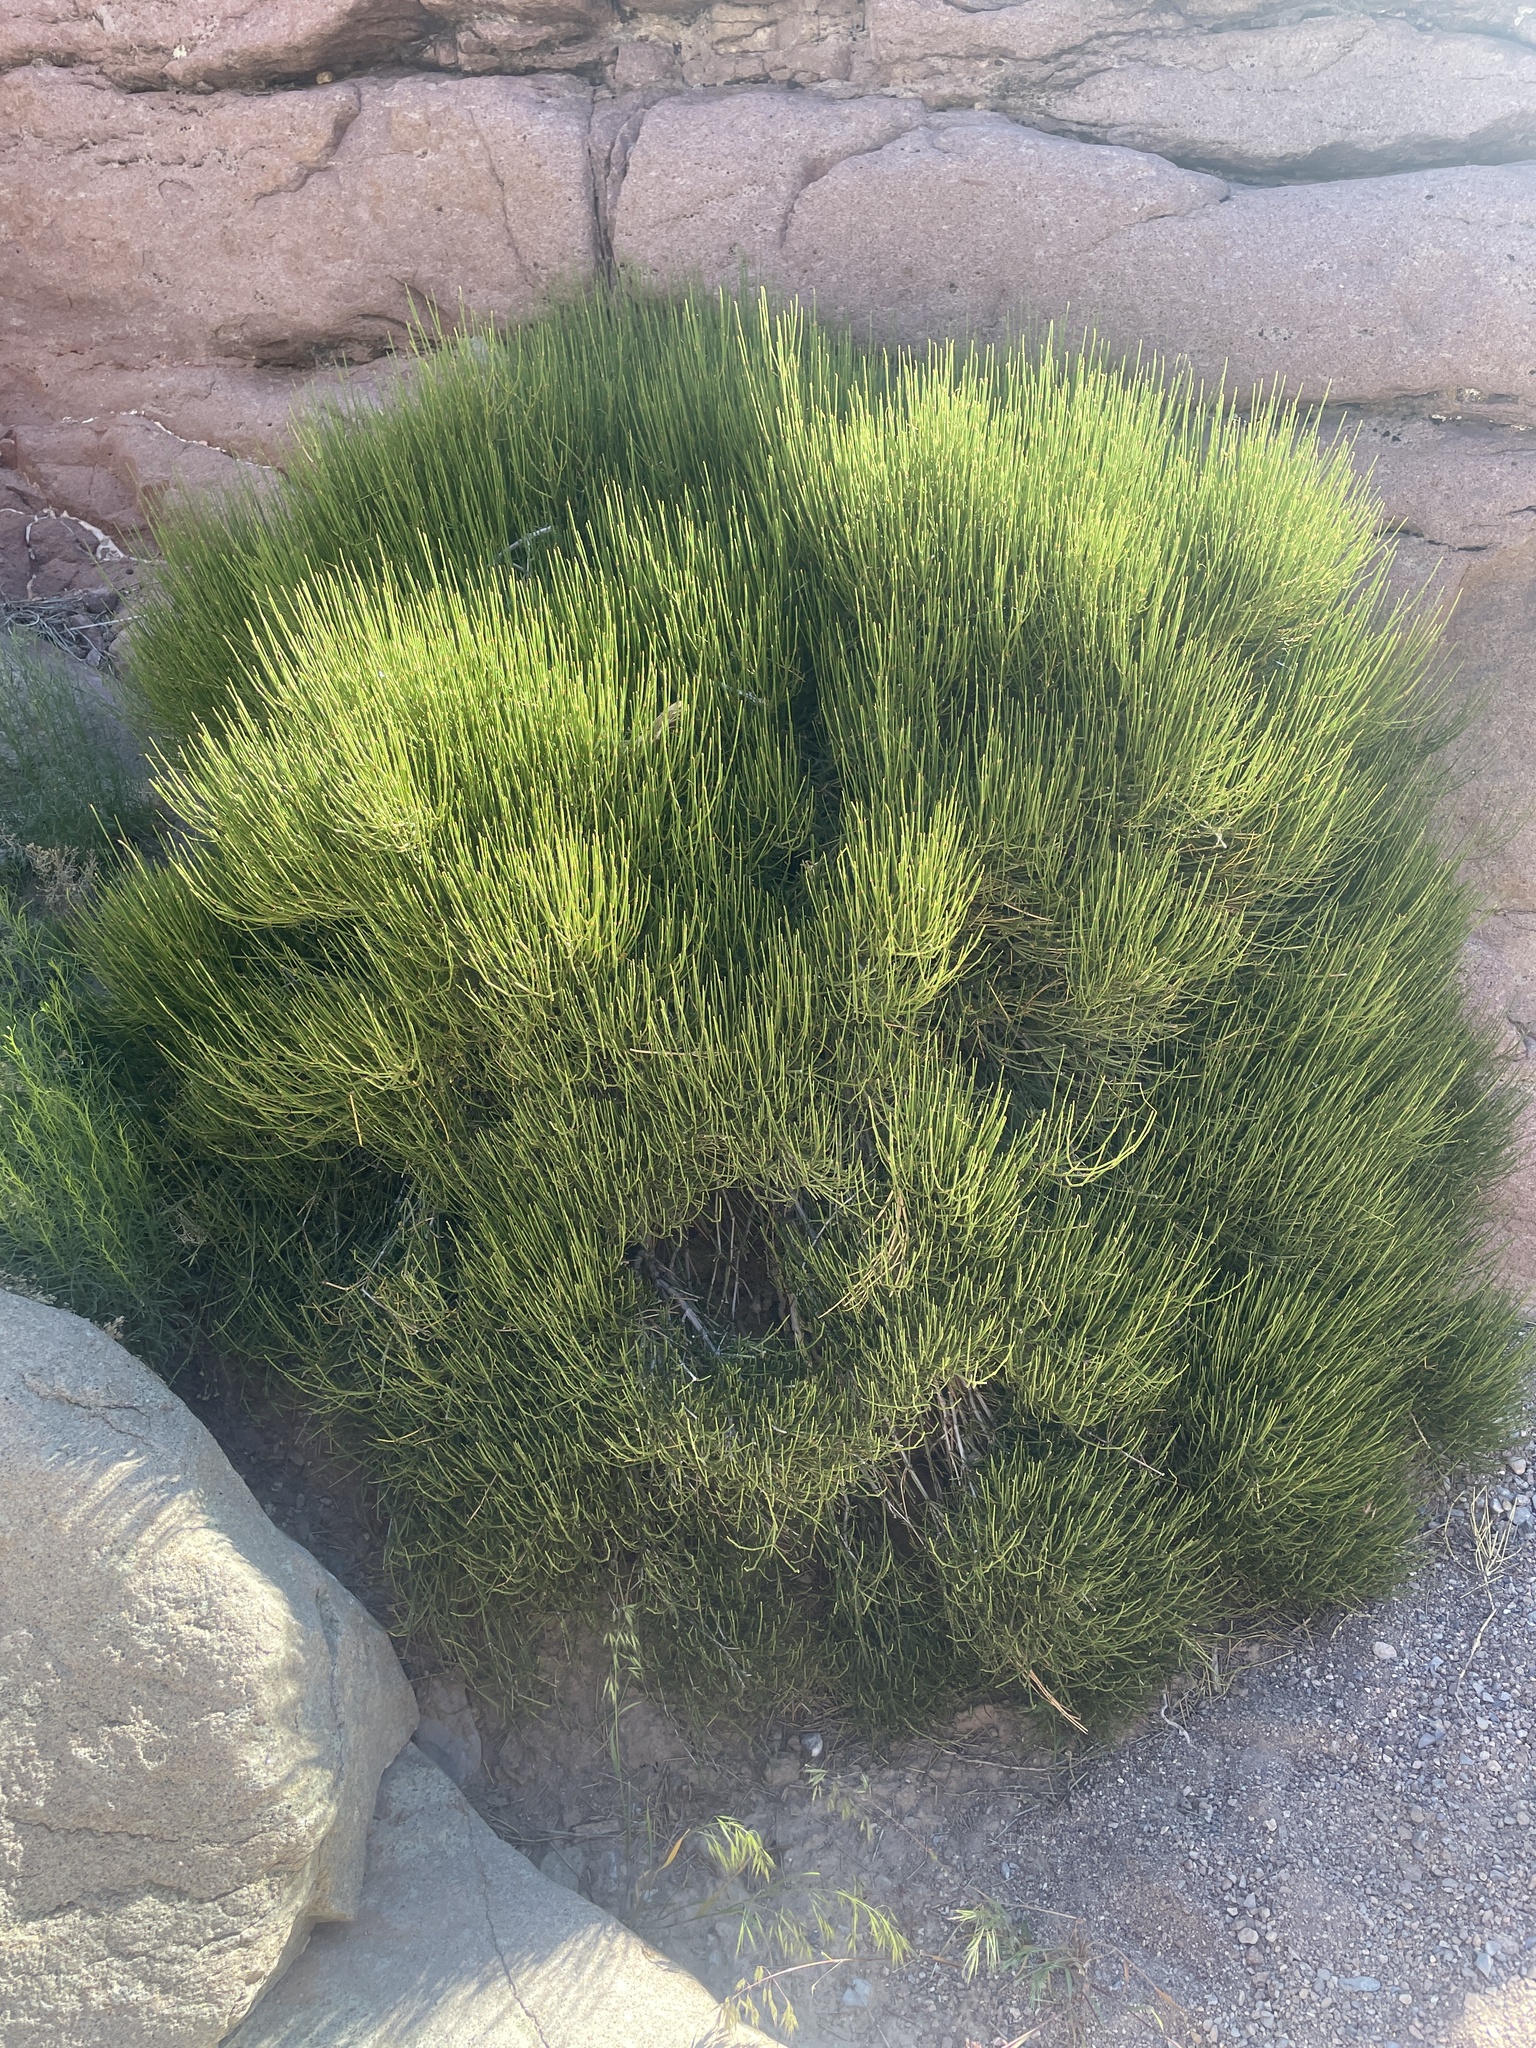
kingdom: Plantae
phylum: Tracheophyta
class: Gnetopsida
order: Ephedrales
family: Ephedraceae
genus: Ephedra
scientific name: Ephedra viridis
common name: Green ephedra
